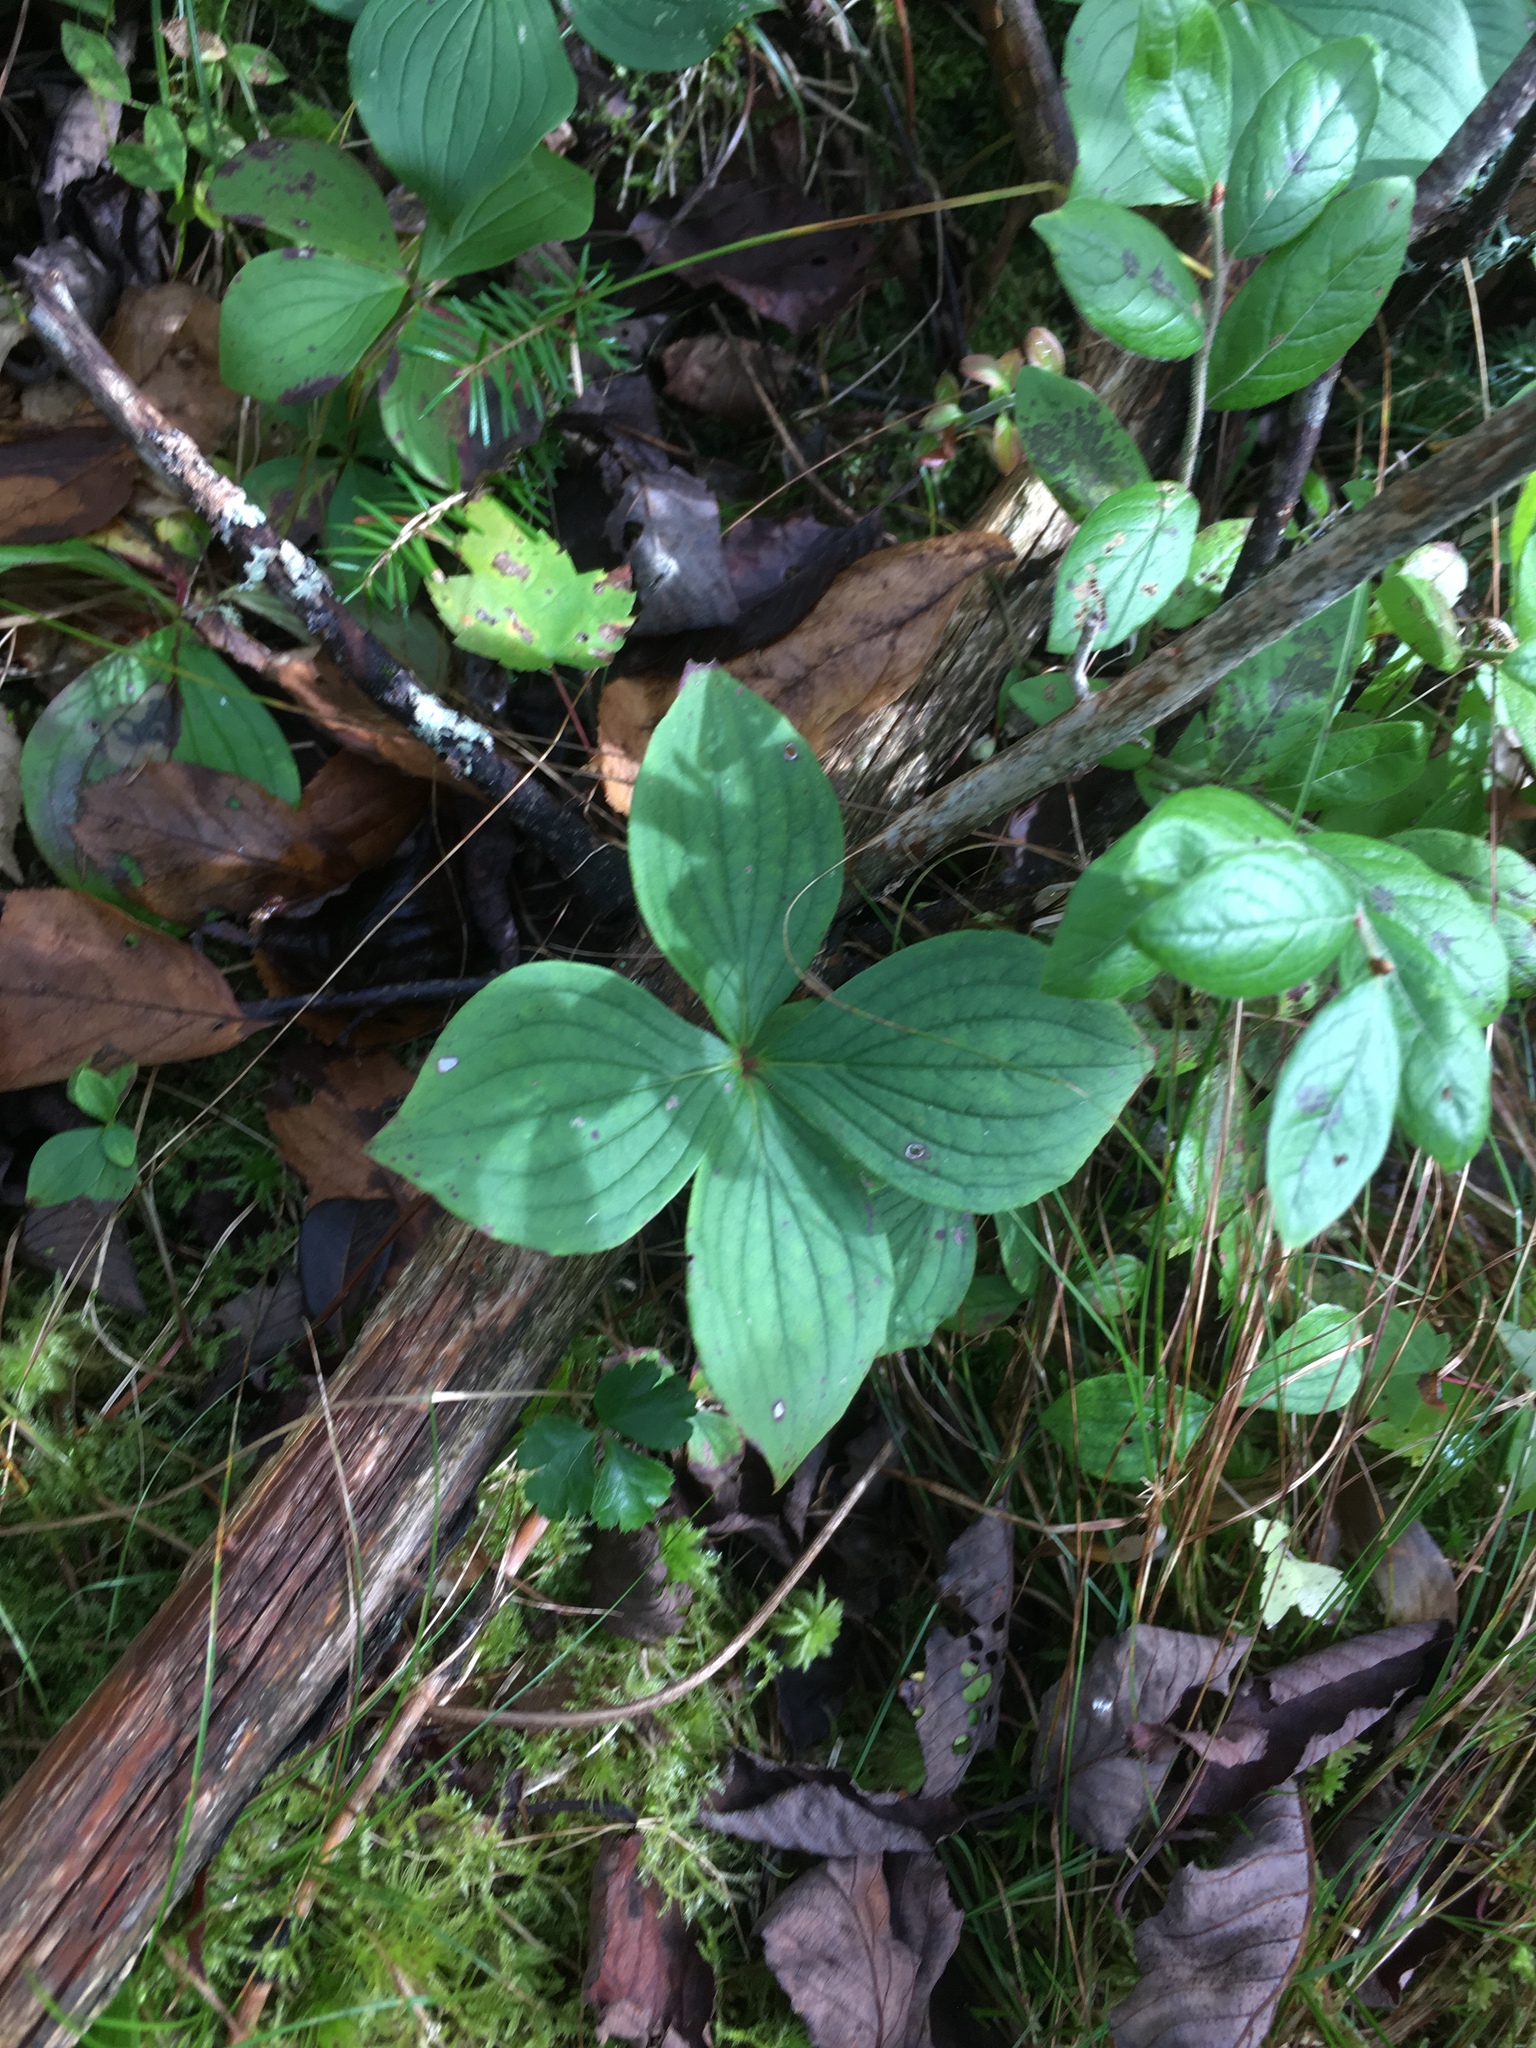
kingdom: Plantae
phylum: Tracheophyta
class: Magnoliopsida
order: Cornales
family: Cornaceae
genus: Cornus
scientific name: Cornus canadensis
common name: Creeping dogwood
